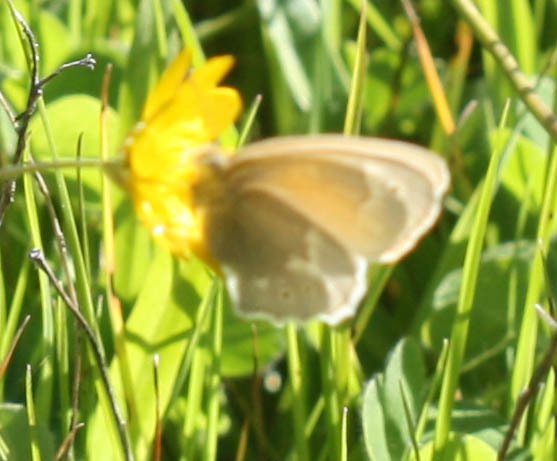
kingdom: Animalia
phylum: Arthropoda
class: Insecta
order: Lepidoptera
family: Nymphalidae
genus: Coenonympha
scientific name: Coenonympha california
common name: Common ringlet
